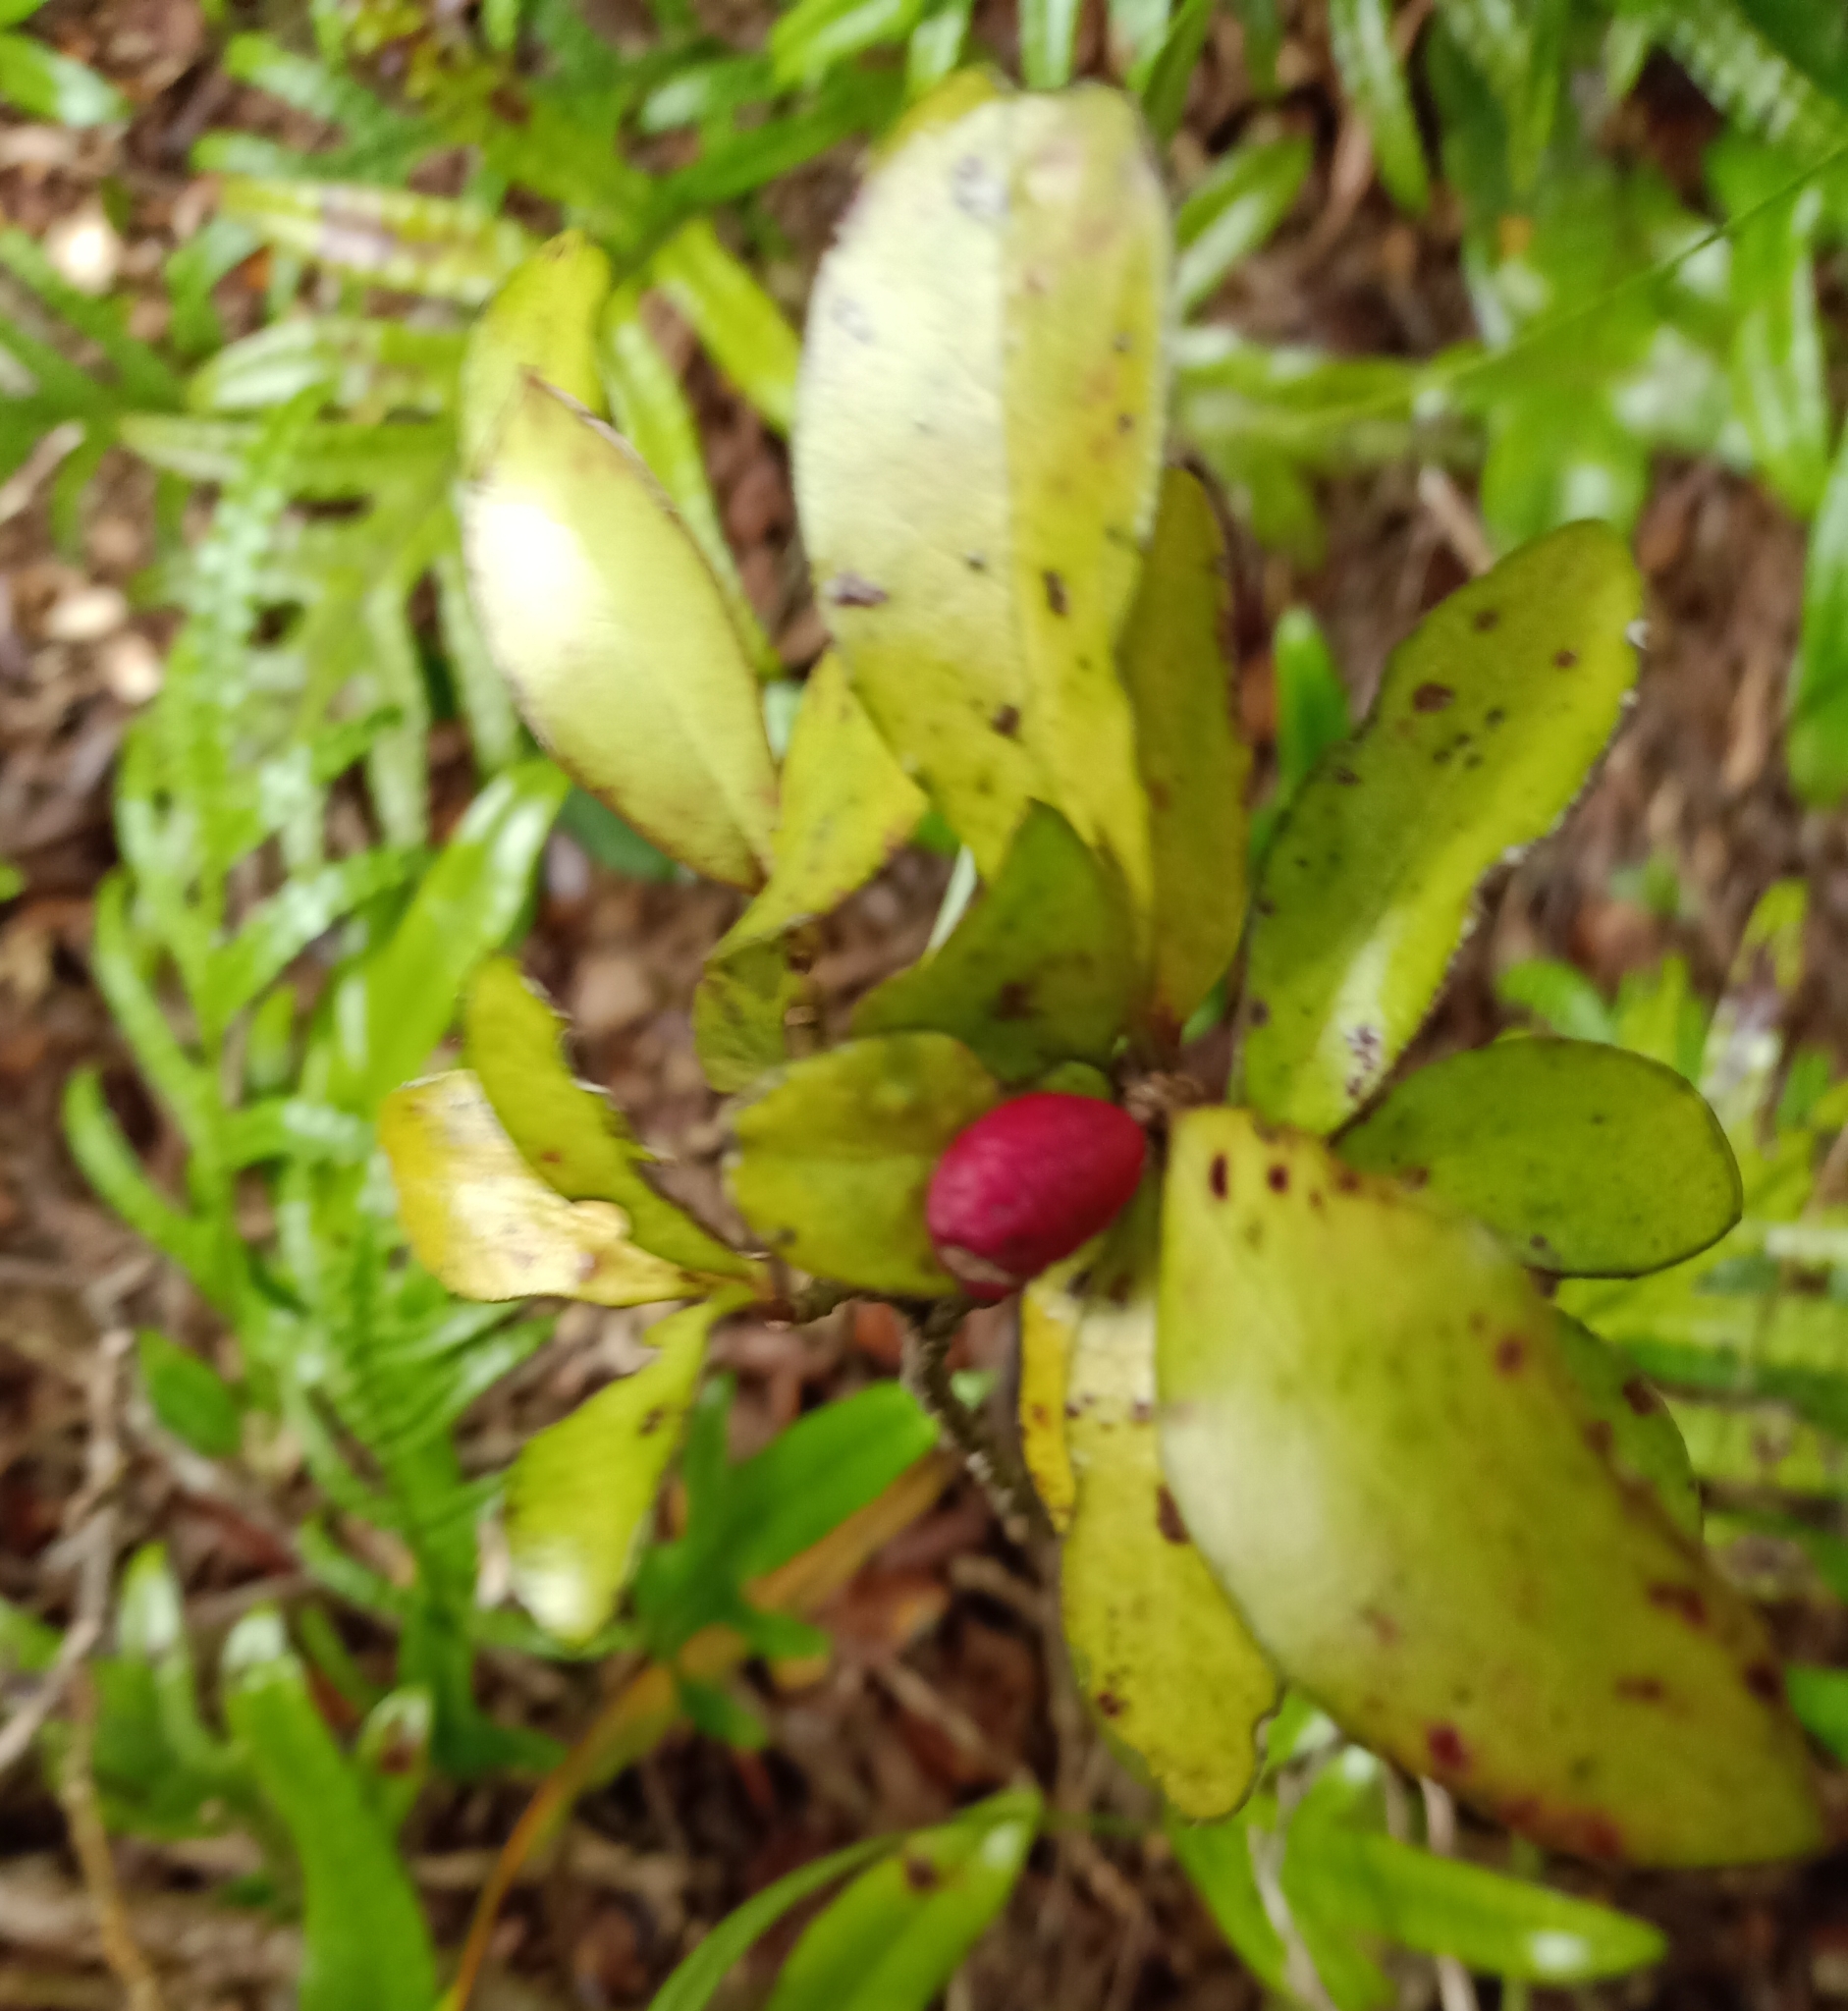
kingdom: Plantae
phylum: Tracheophyta
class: Magnoliopsida
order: Asterales
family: Alseuosmiaceae
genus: Alseuosmia
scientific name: Alseuosmia pusilla
